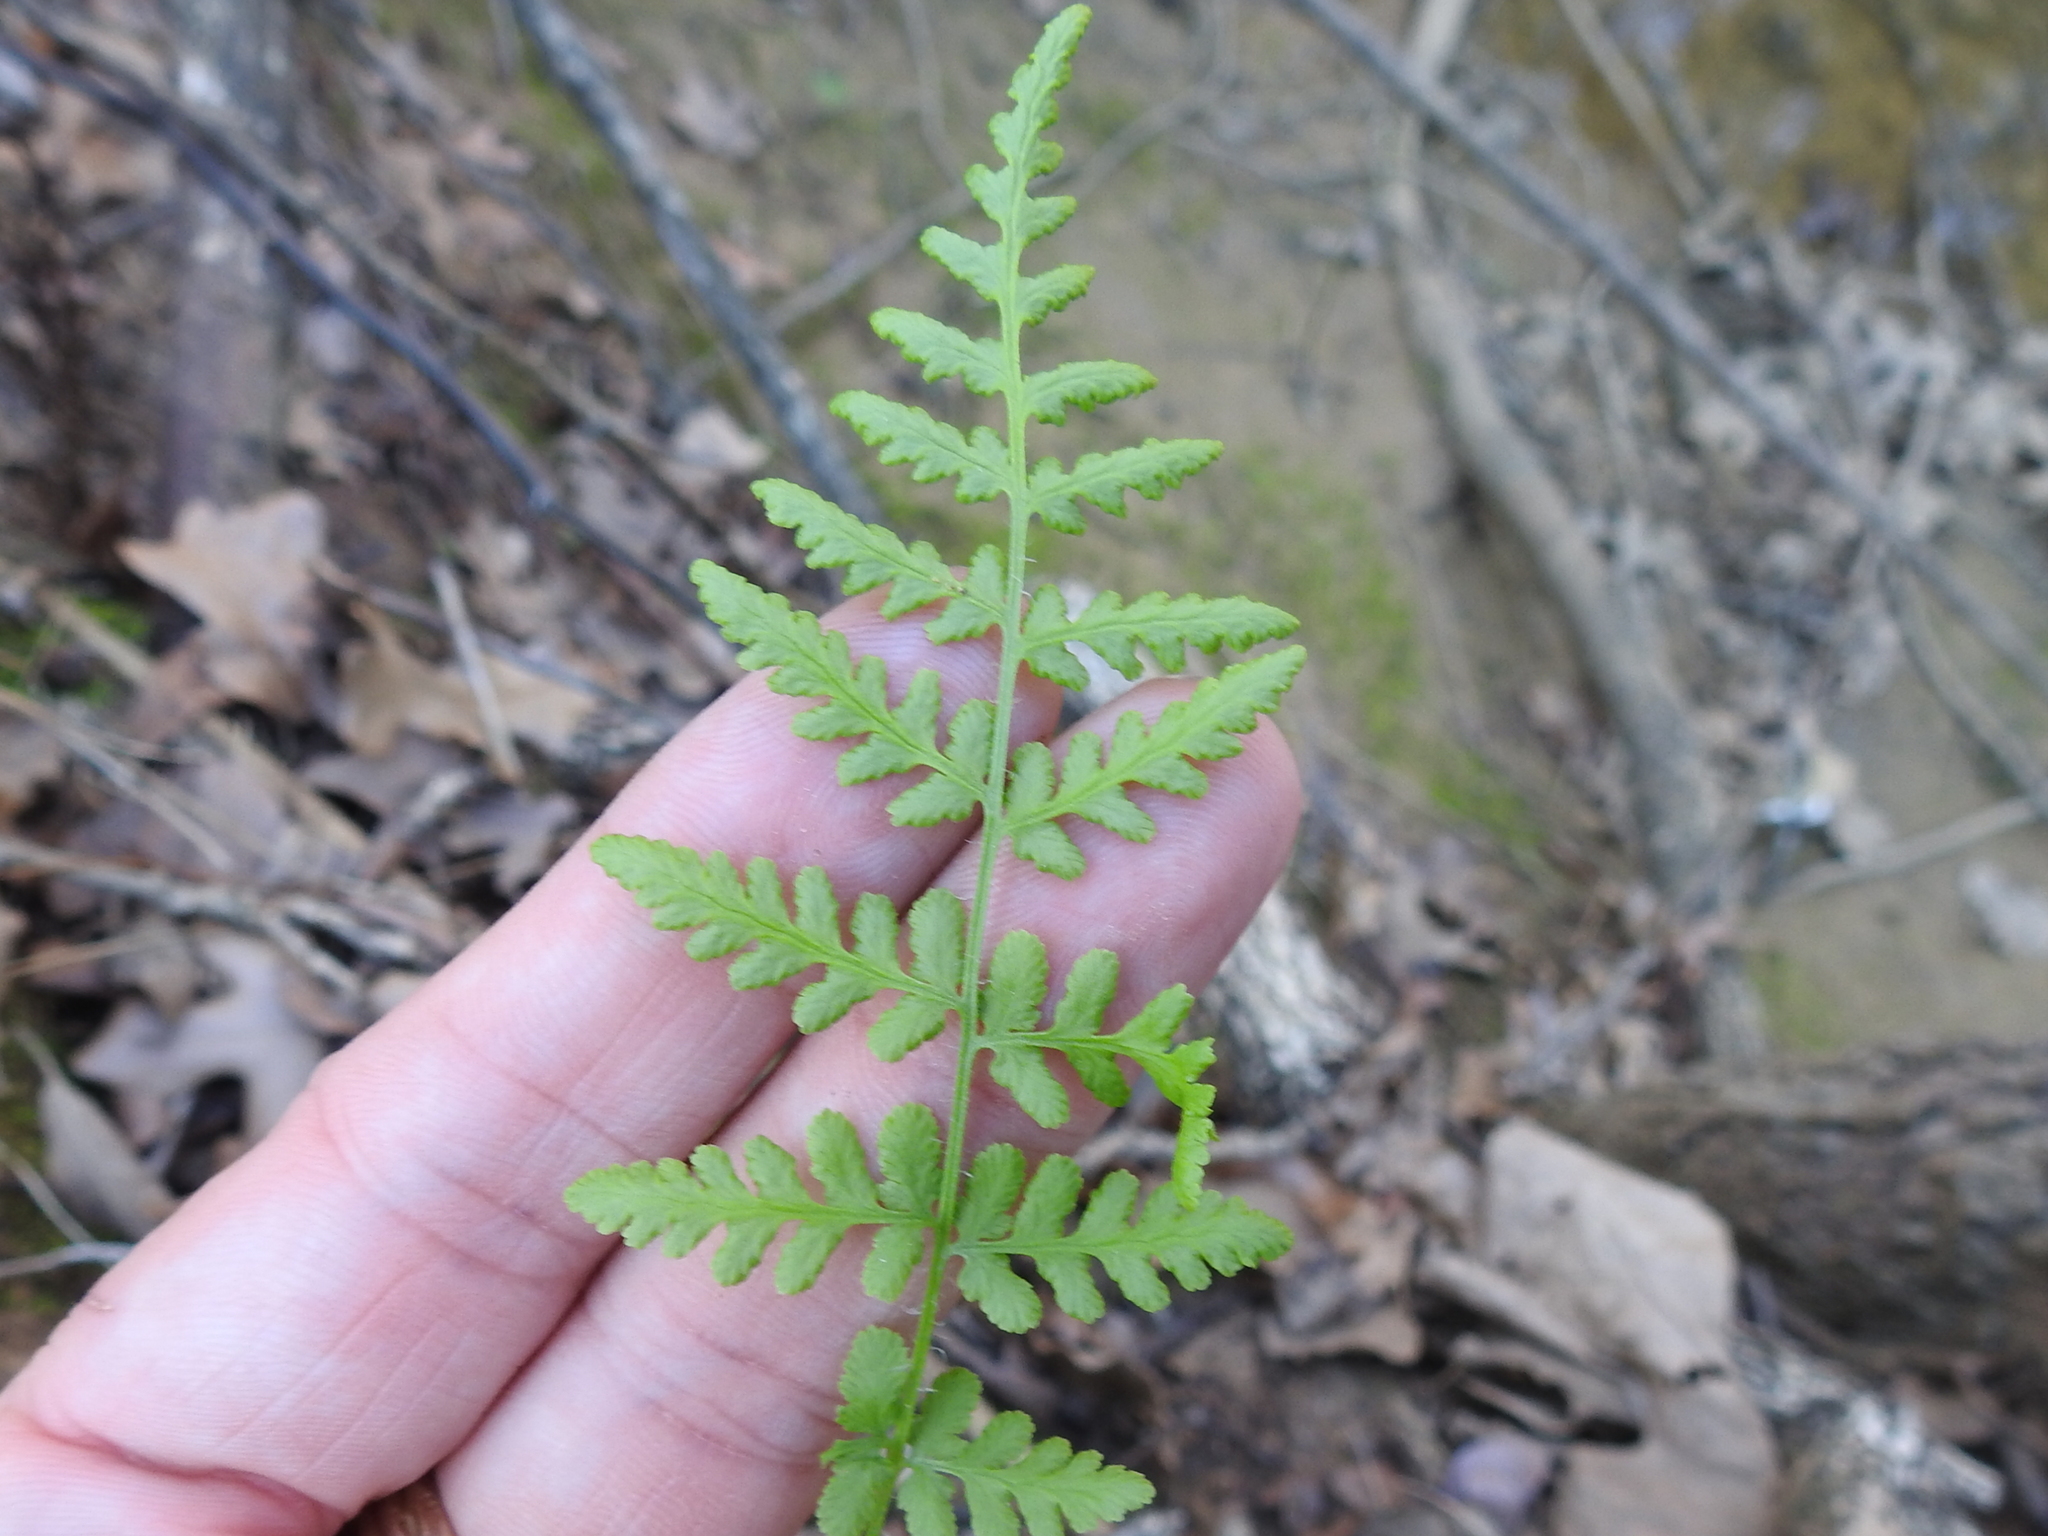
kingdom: Plantae
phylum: Tracheophyta
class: Polypodiopsida
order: Polypodiales
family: Woodsiaceae
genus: Physematium
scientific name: Physematium obtusum
